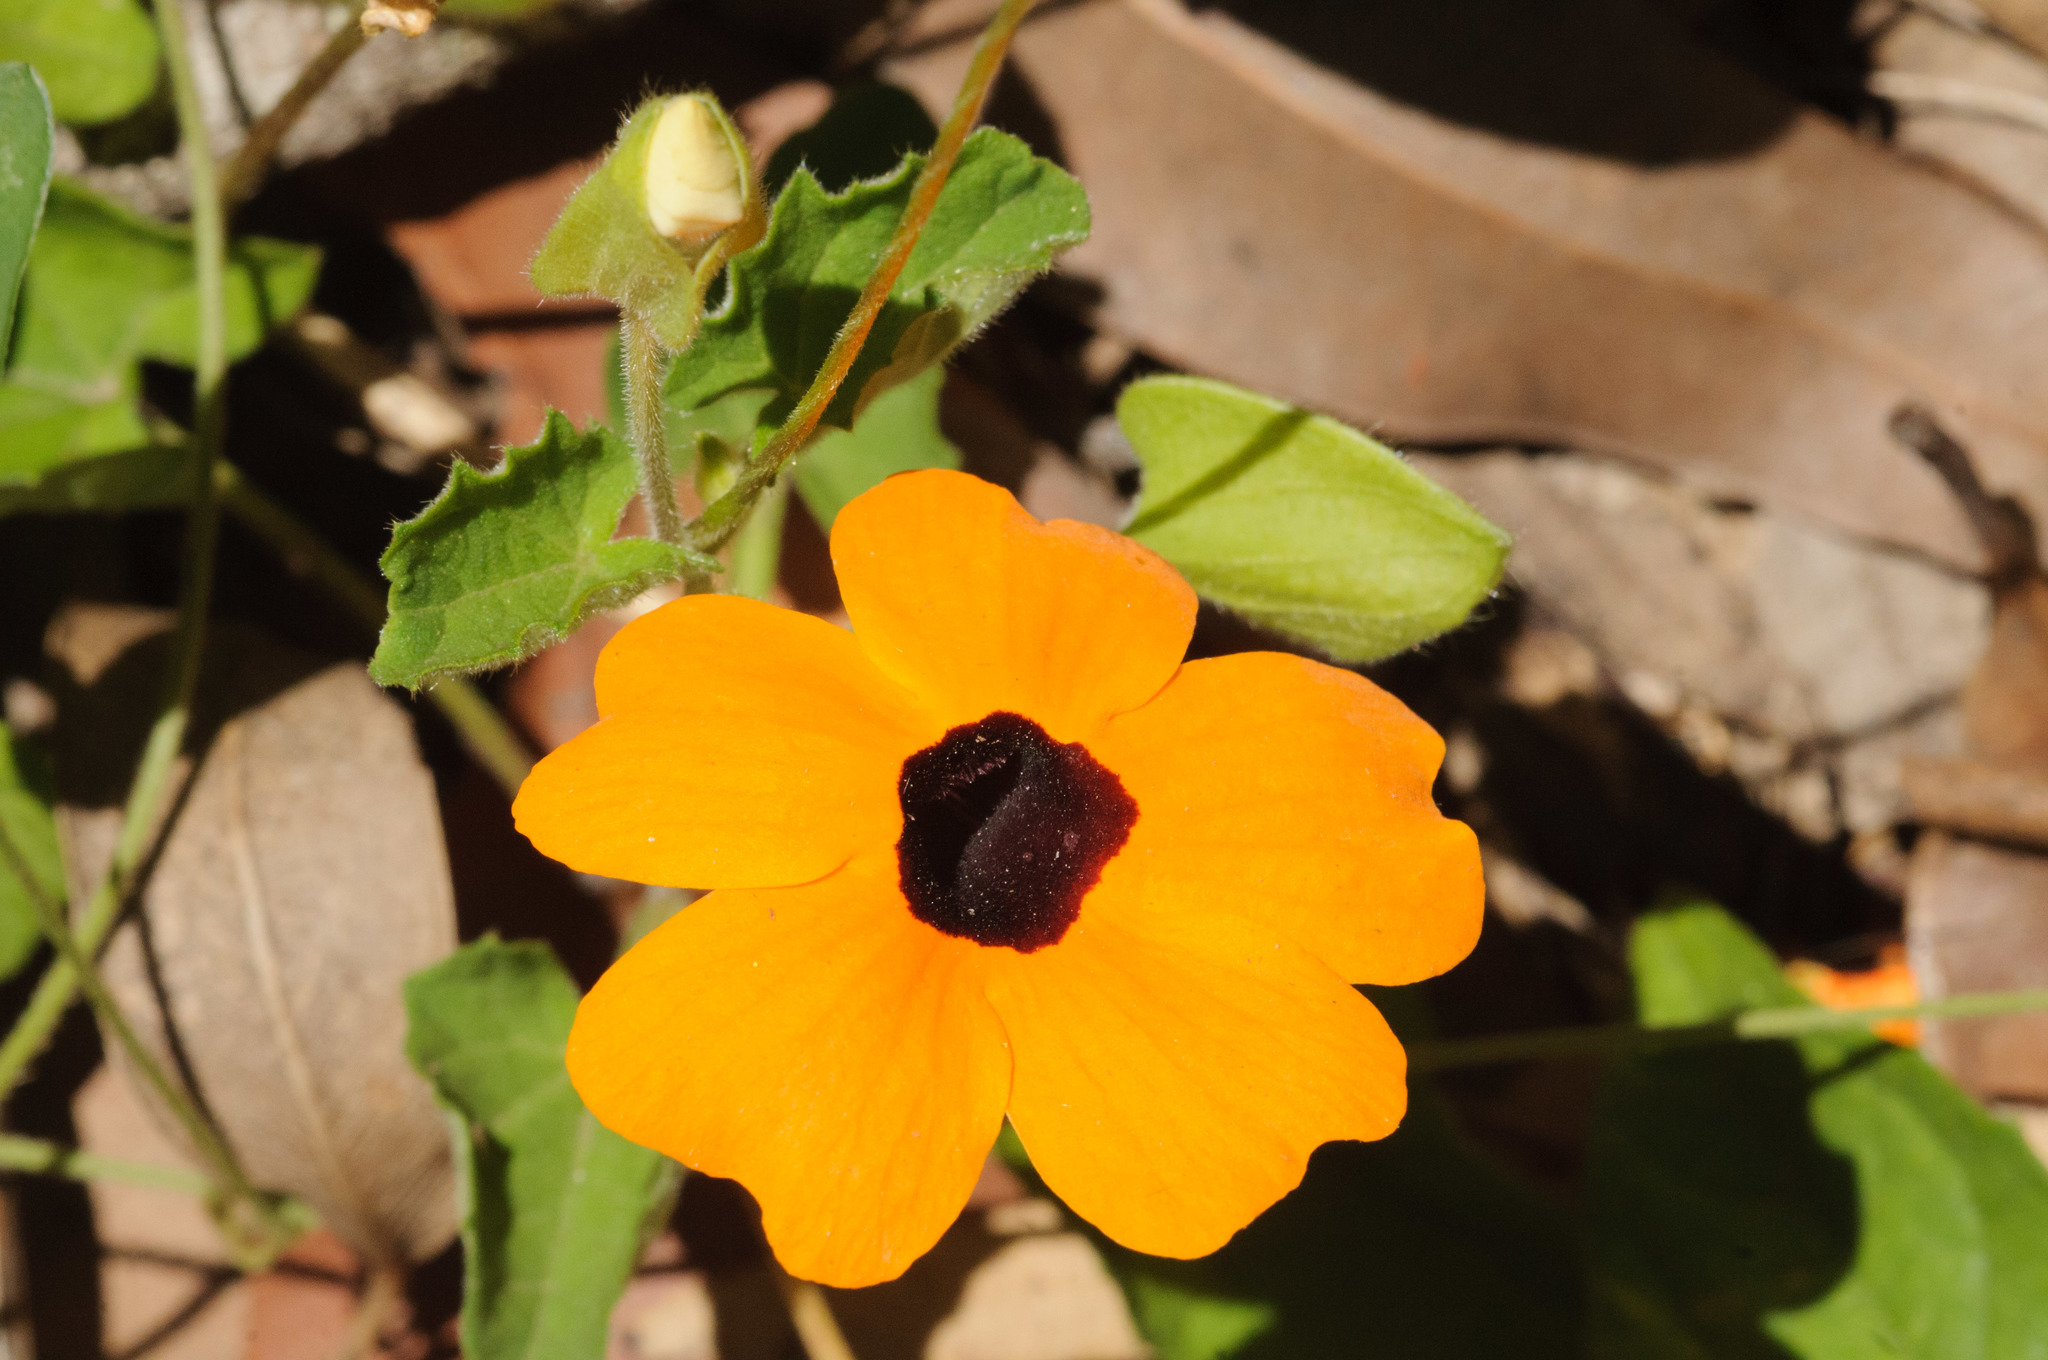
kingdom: Plantae
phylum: Tracheophyta
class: Magnoliopsida
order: Lamiales
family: Acanthaceae
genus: Thunbergia
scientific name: Thunbergia alata
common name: Blackeyed susan vine
